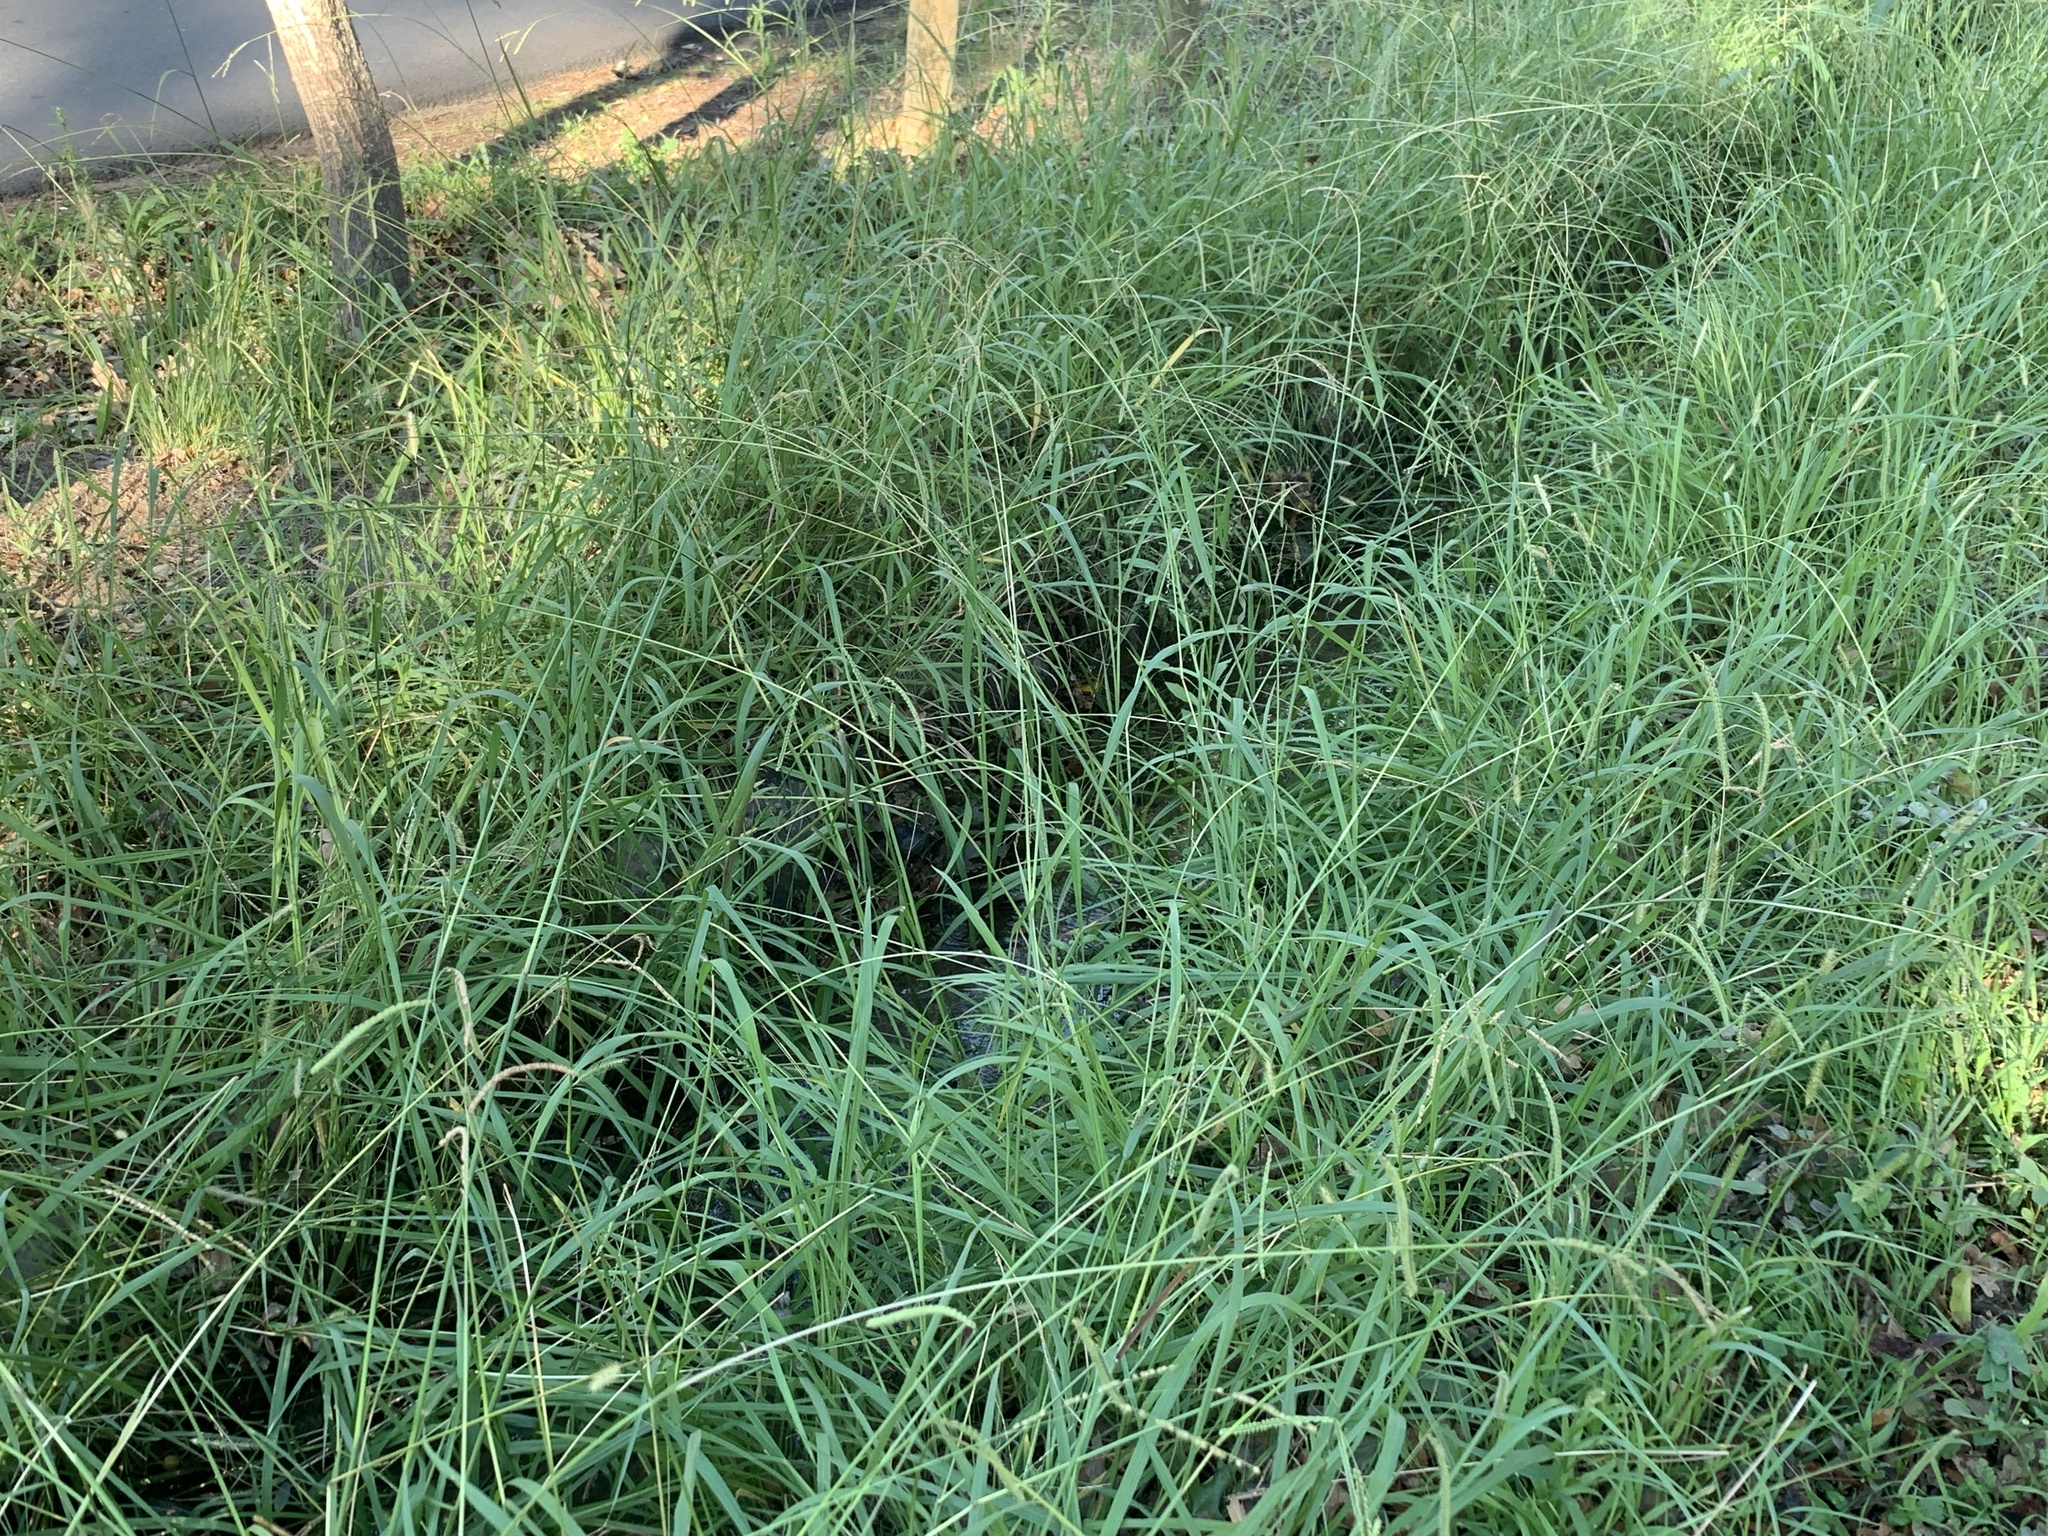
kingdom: Plantae
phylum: Tracheophyta
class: Liliopsida
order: Poales
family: Poaceae
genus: Paspalum
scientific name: Paspalum dilatatum
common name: Dallisgrass
